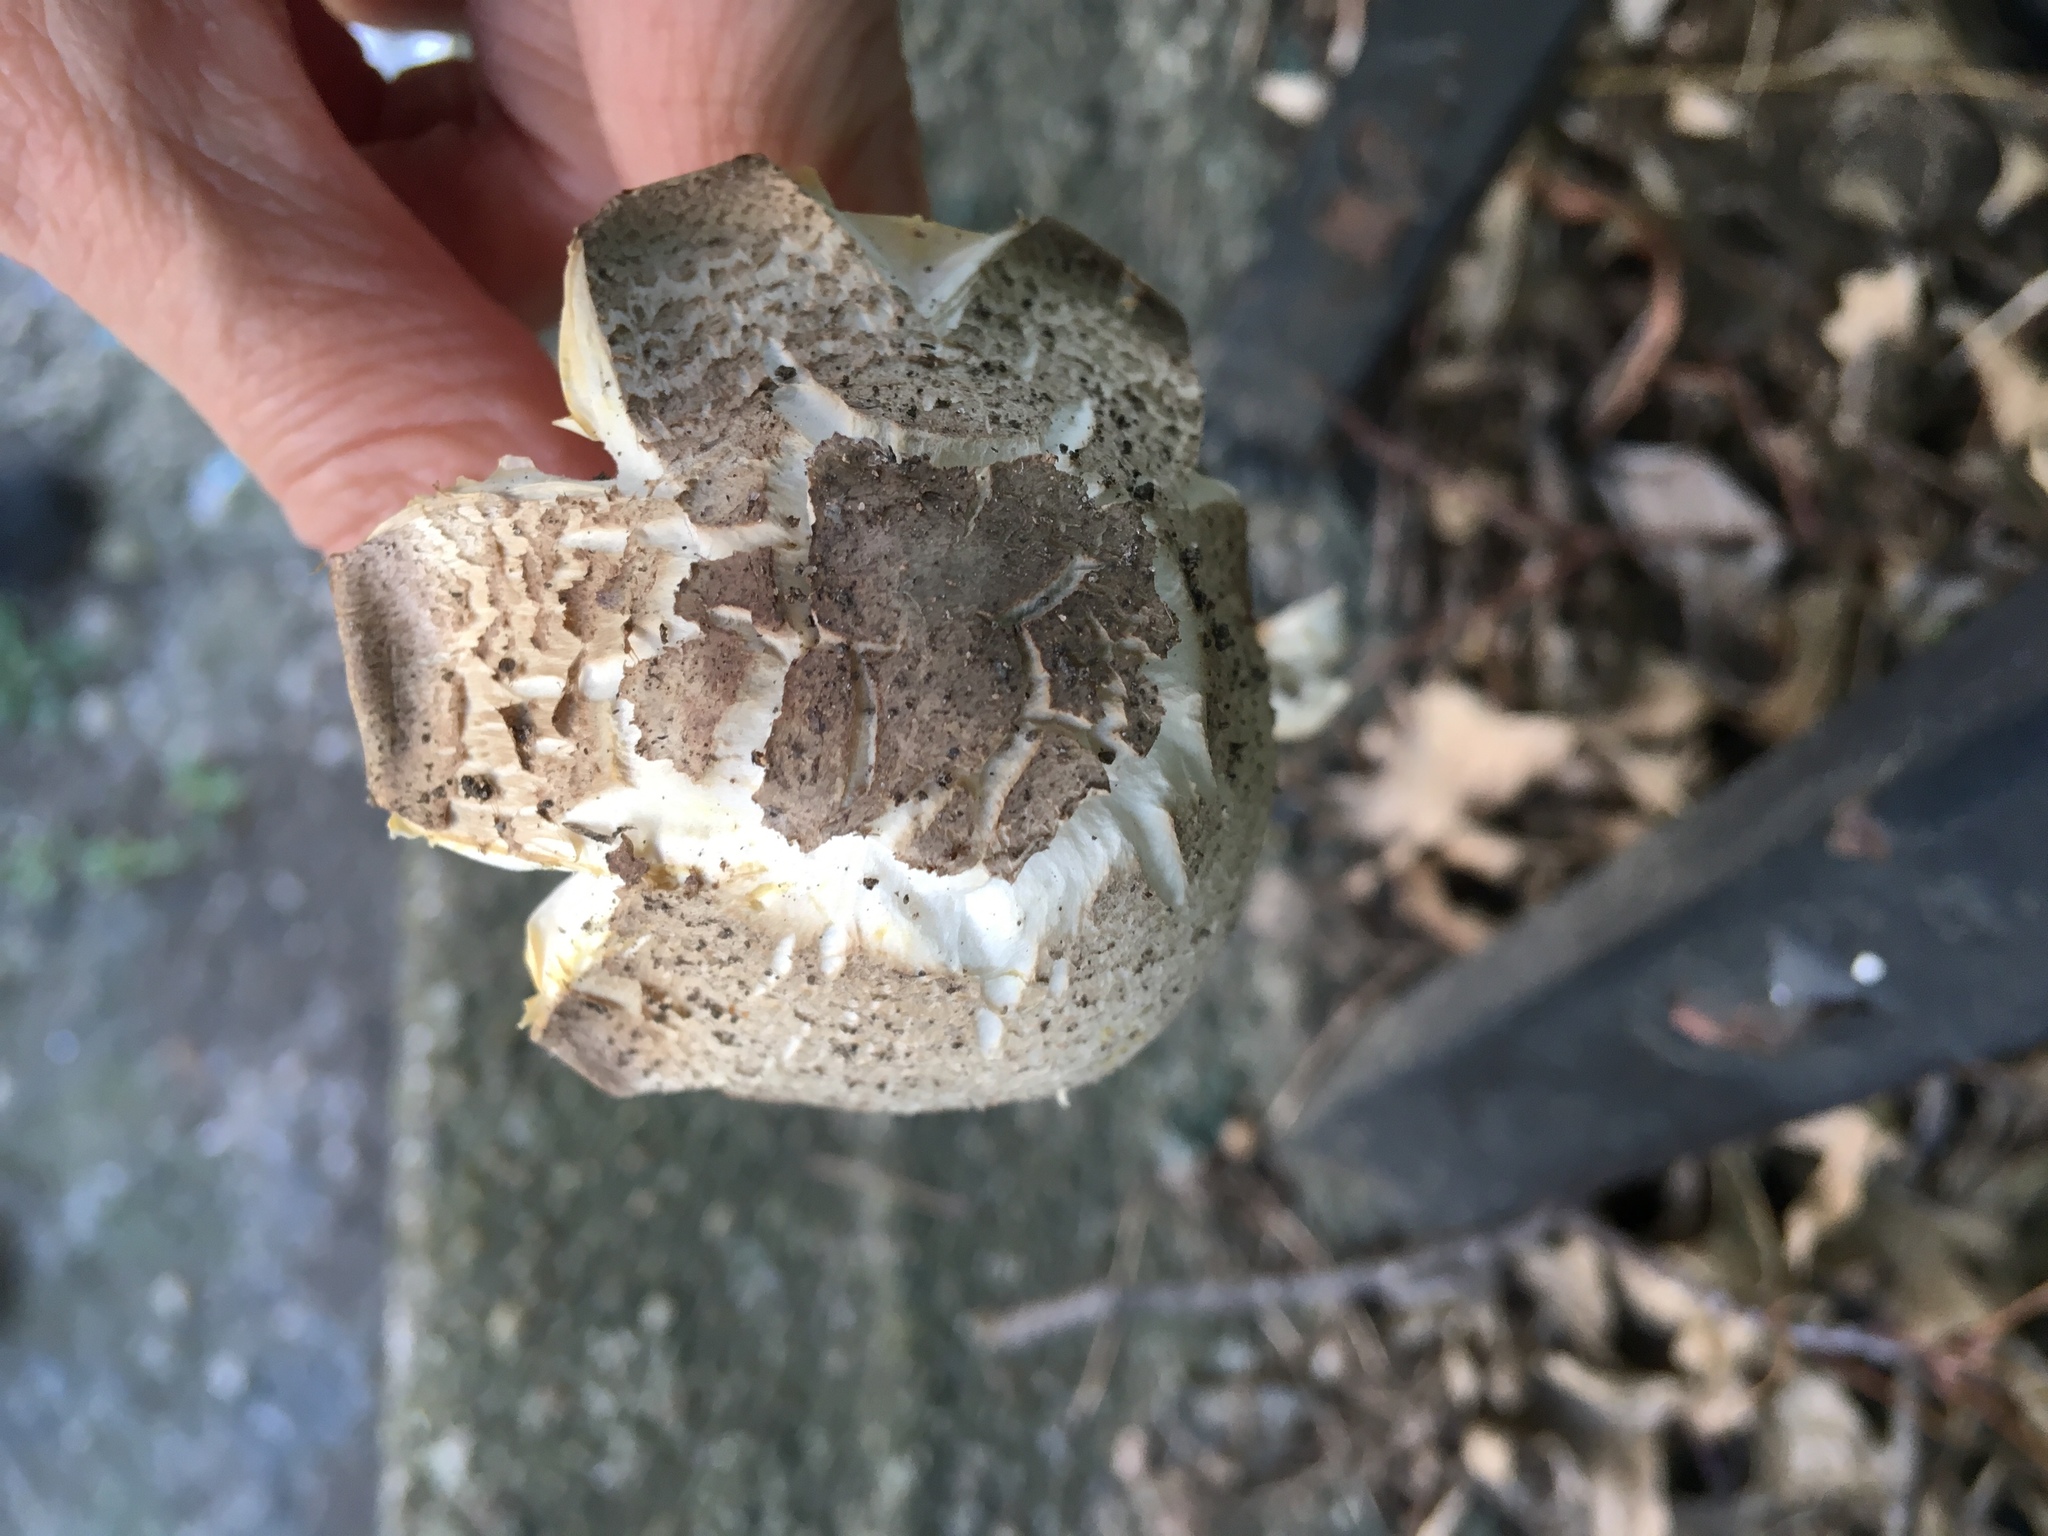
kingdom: Fungi
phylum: Basidiomycota
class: Agaricomycetes
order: Agaricales
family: Agaricaceae
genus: Agaricus
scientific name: Agaricus approximans
